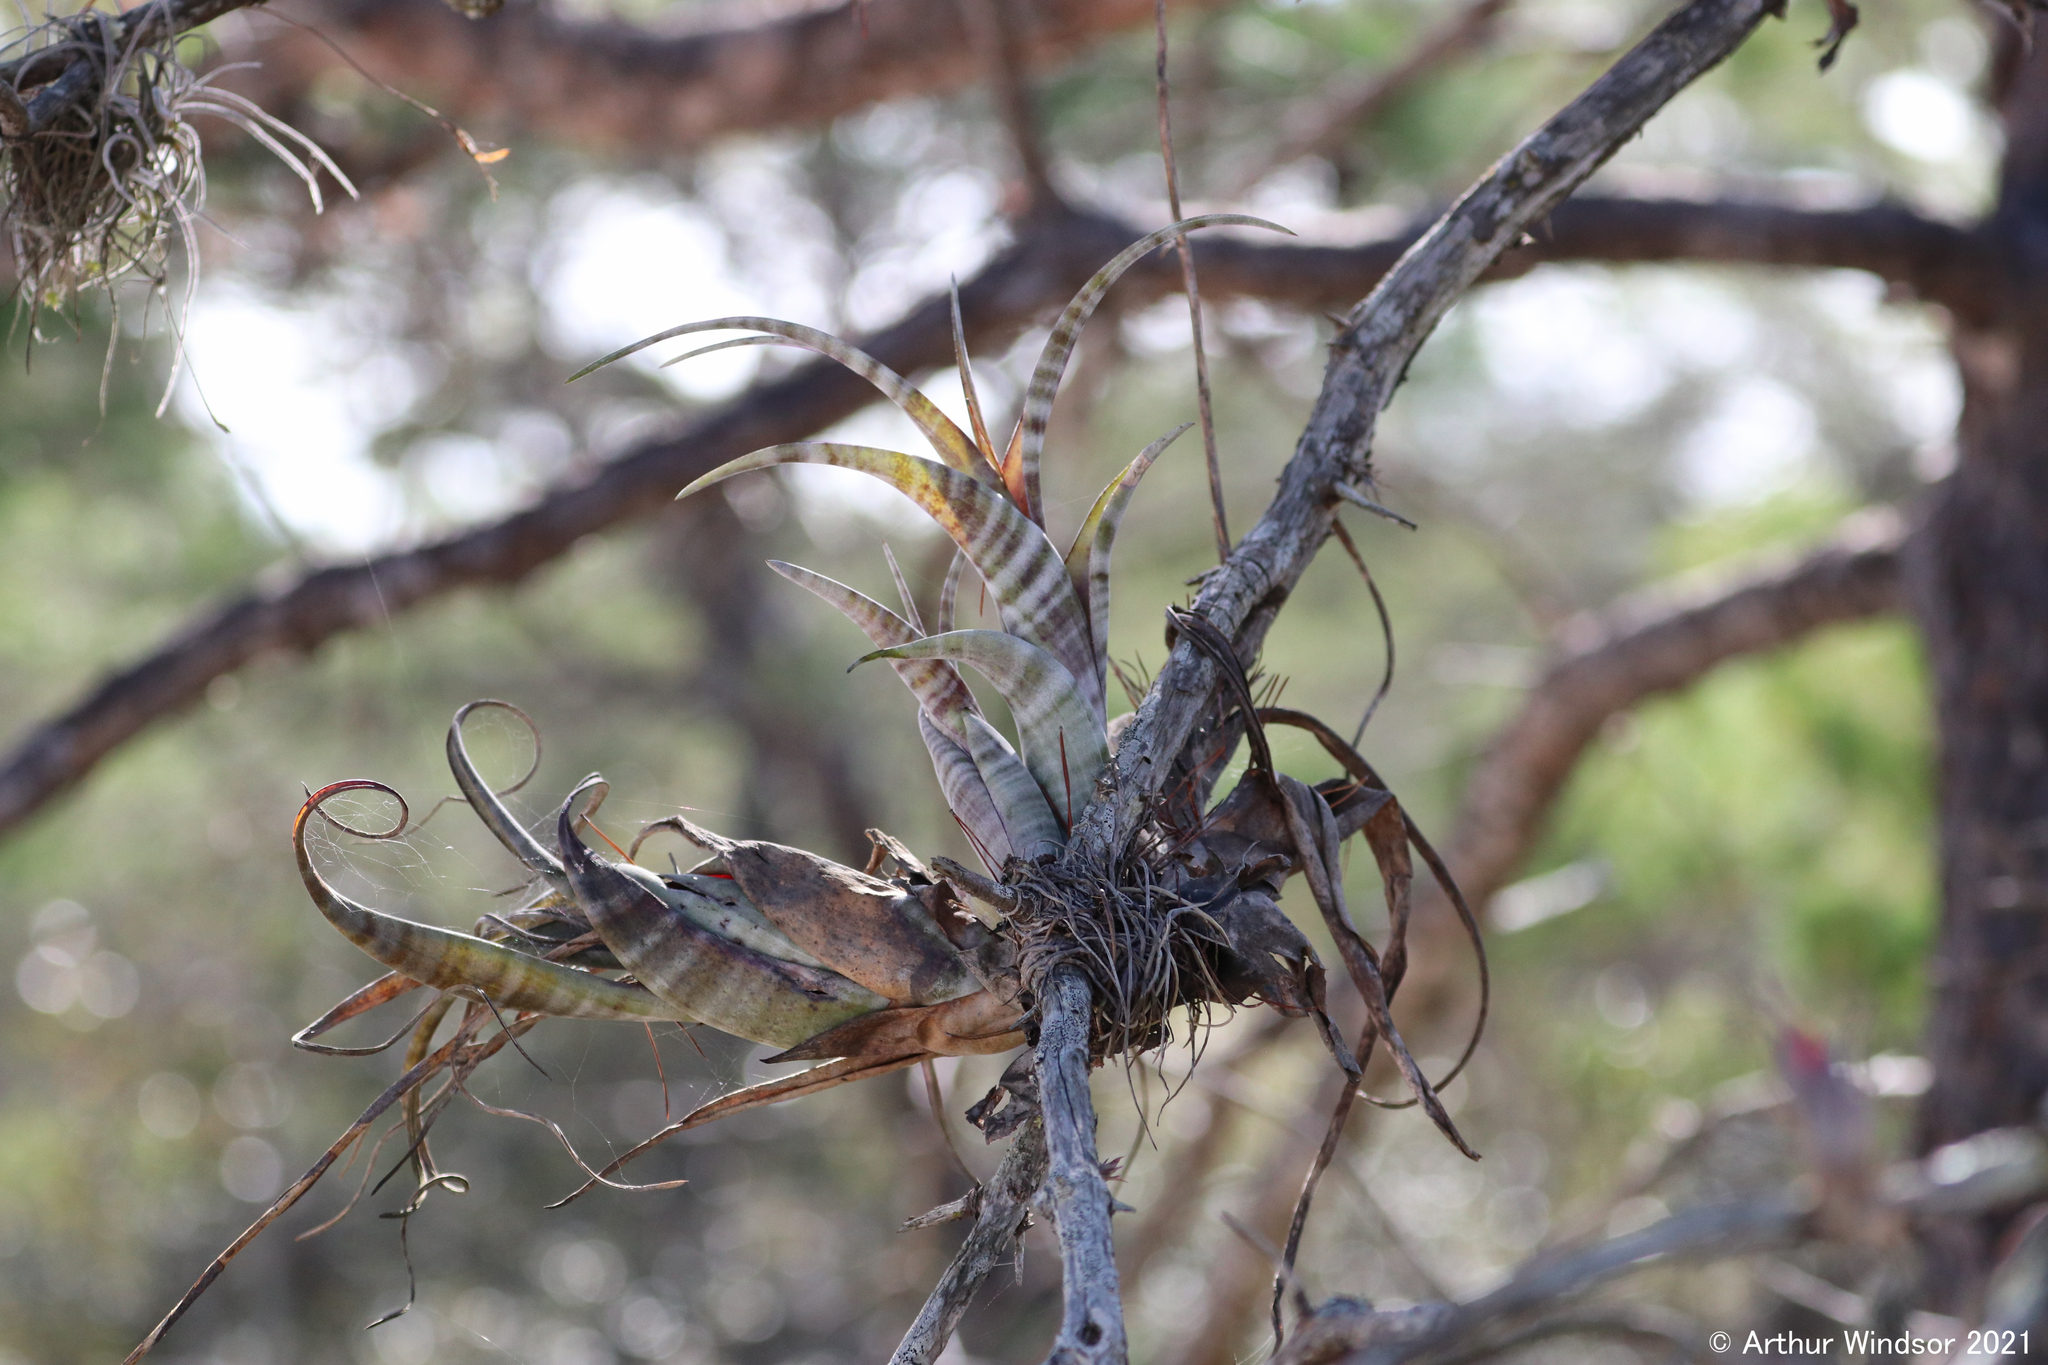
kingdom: Plantae
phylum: Tracheophyta
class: Liliopsida
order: Poales
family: Bromeliaceae
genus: Tillandsia
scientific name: Tillandsia flexuosa
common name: Banded airplant
